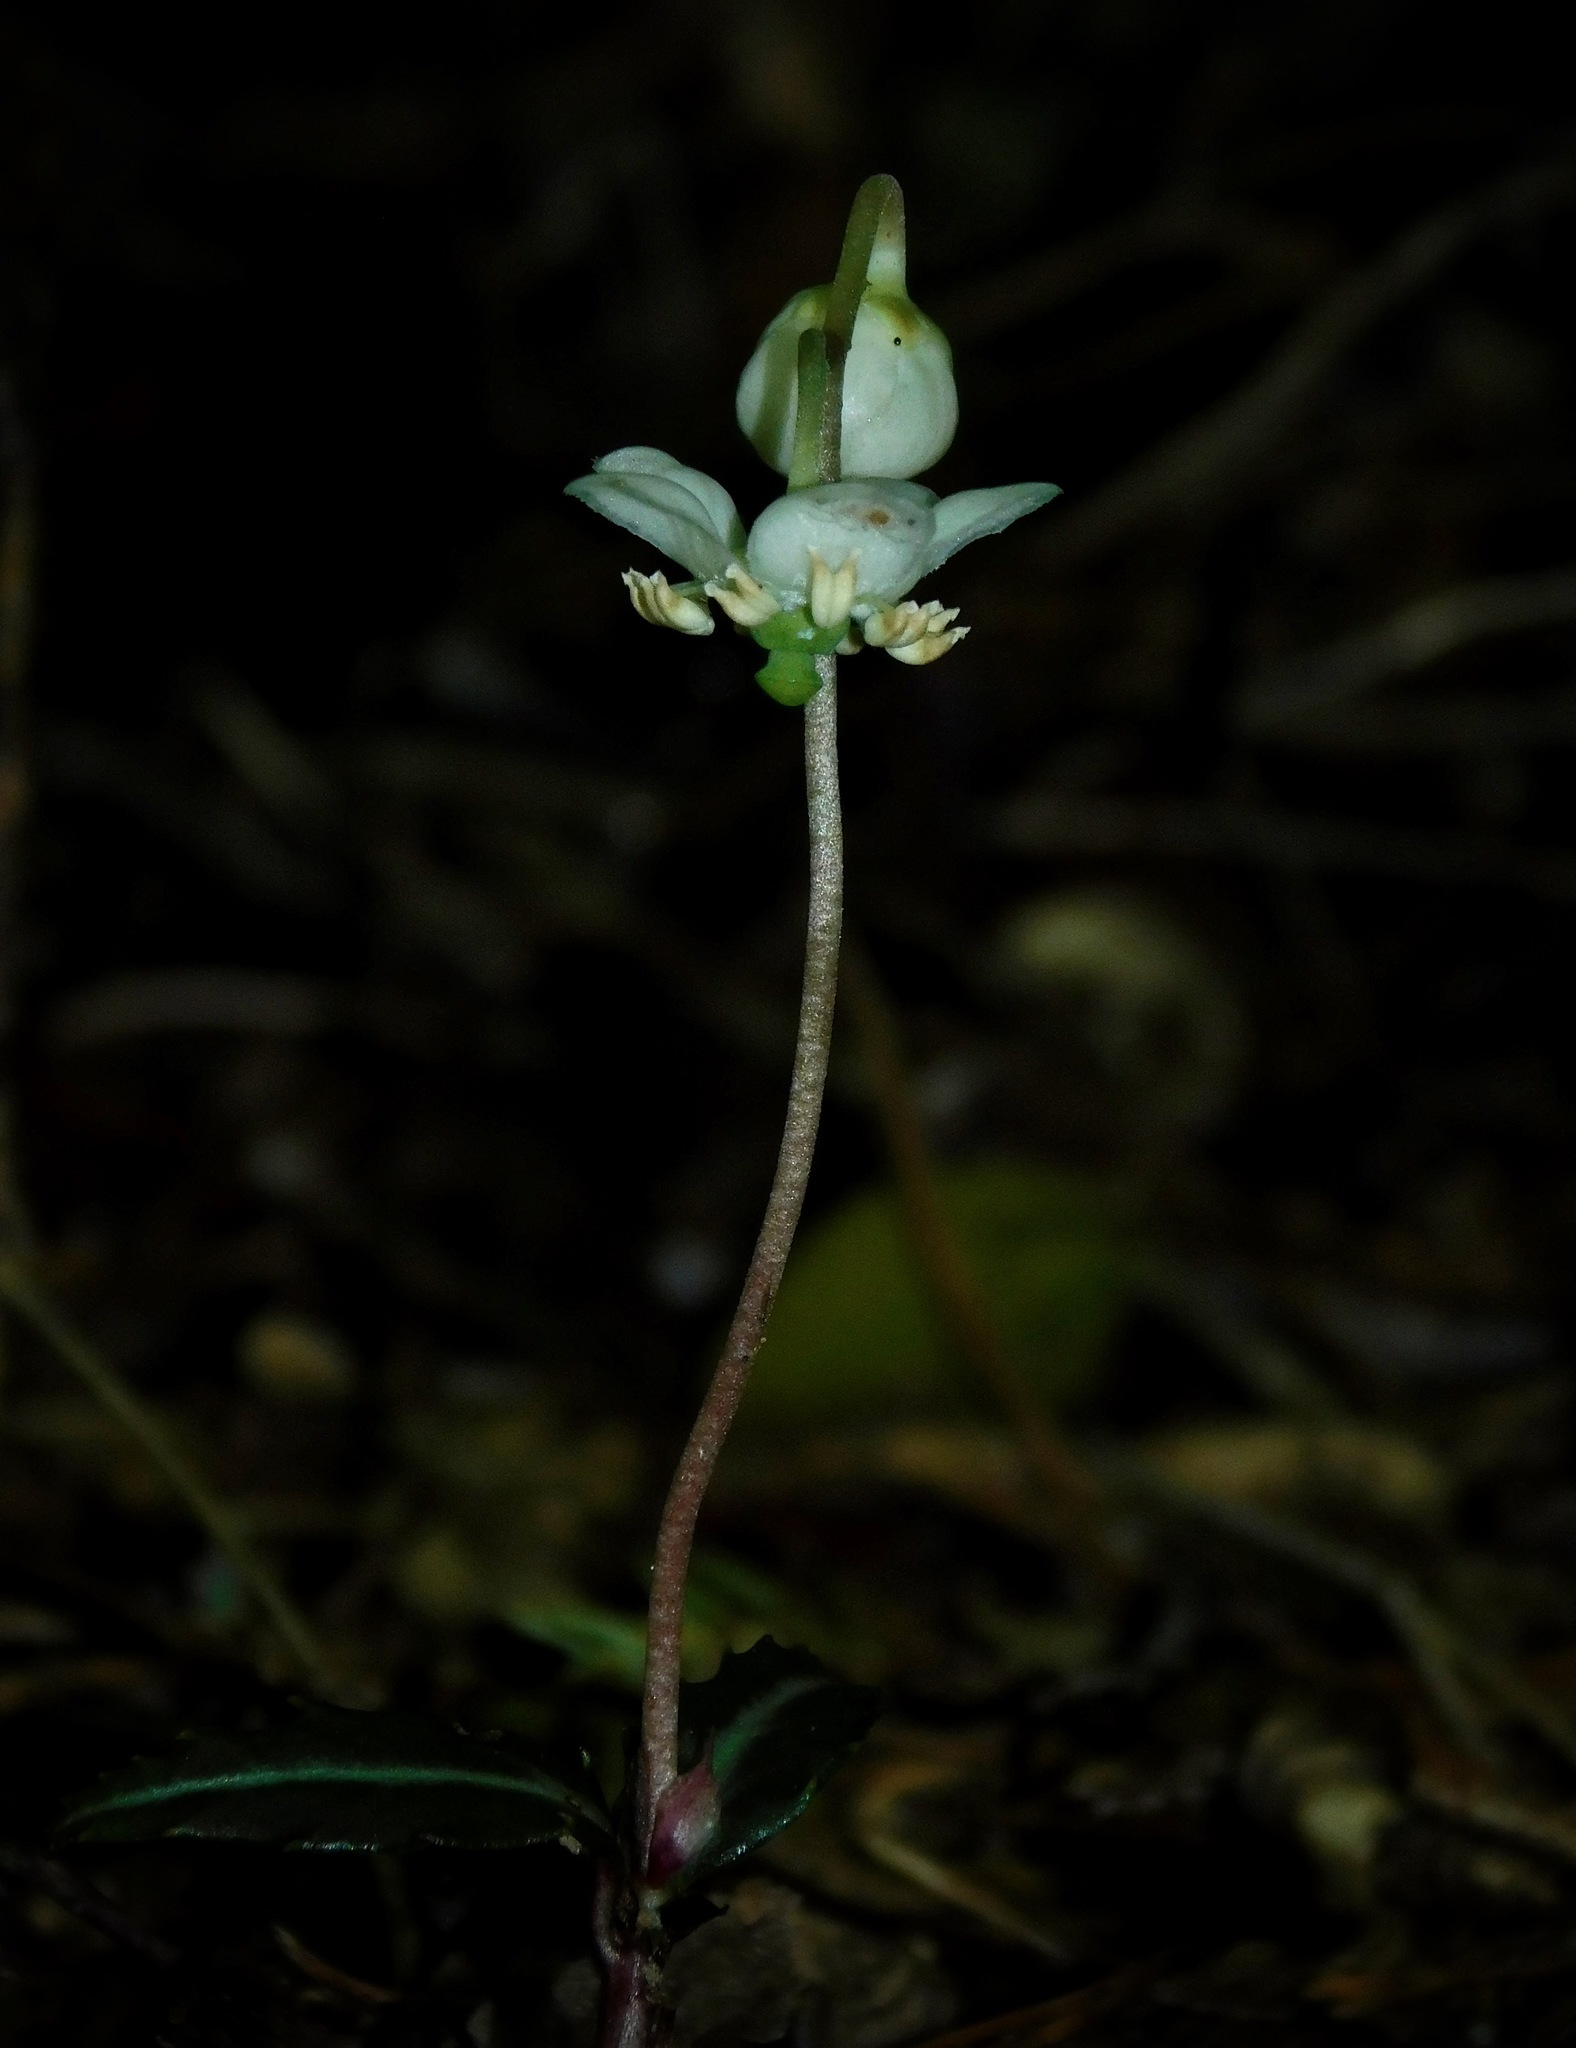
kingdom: Plantae
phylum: Tracheophyta
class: Magnoliopsida
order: Ericales
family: Ericaceae
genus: Chimaphila
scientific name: Chimaphila maculata
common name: Spotted pipsissewa
